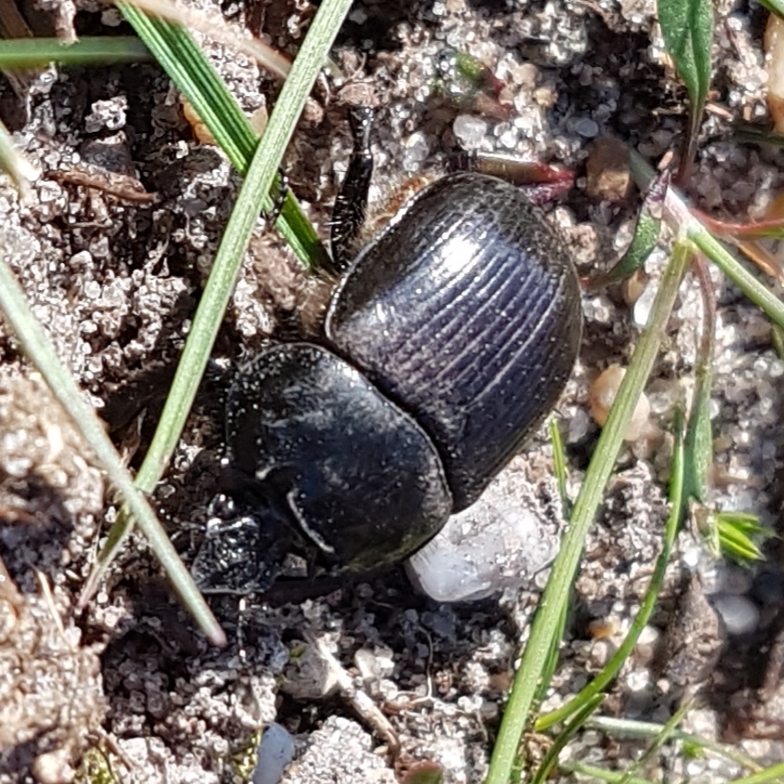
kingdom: Animalia
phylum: Arthropoda
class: Insecta
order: Coleoptera
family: Geotrupidae
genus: Typhaeus
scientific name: Typhaeus typhoeus
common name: Minotaur beetle
